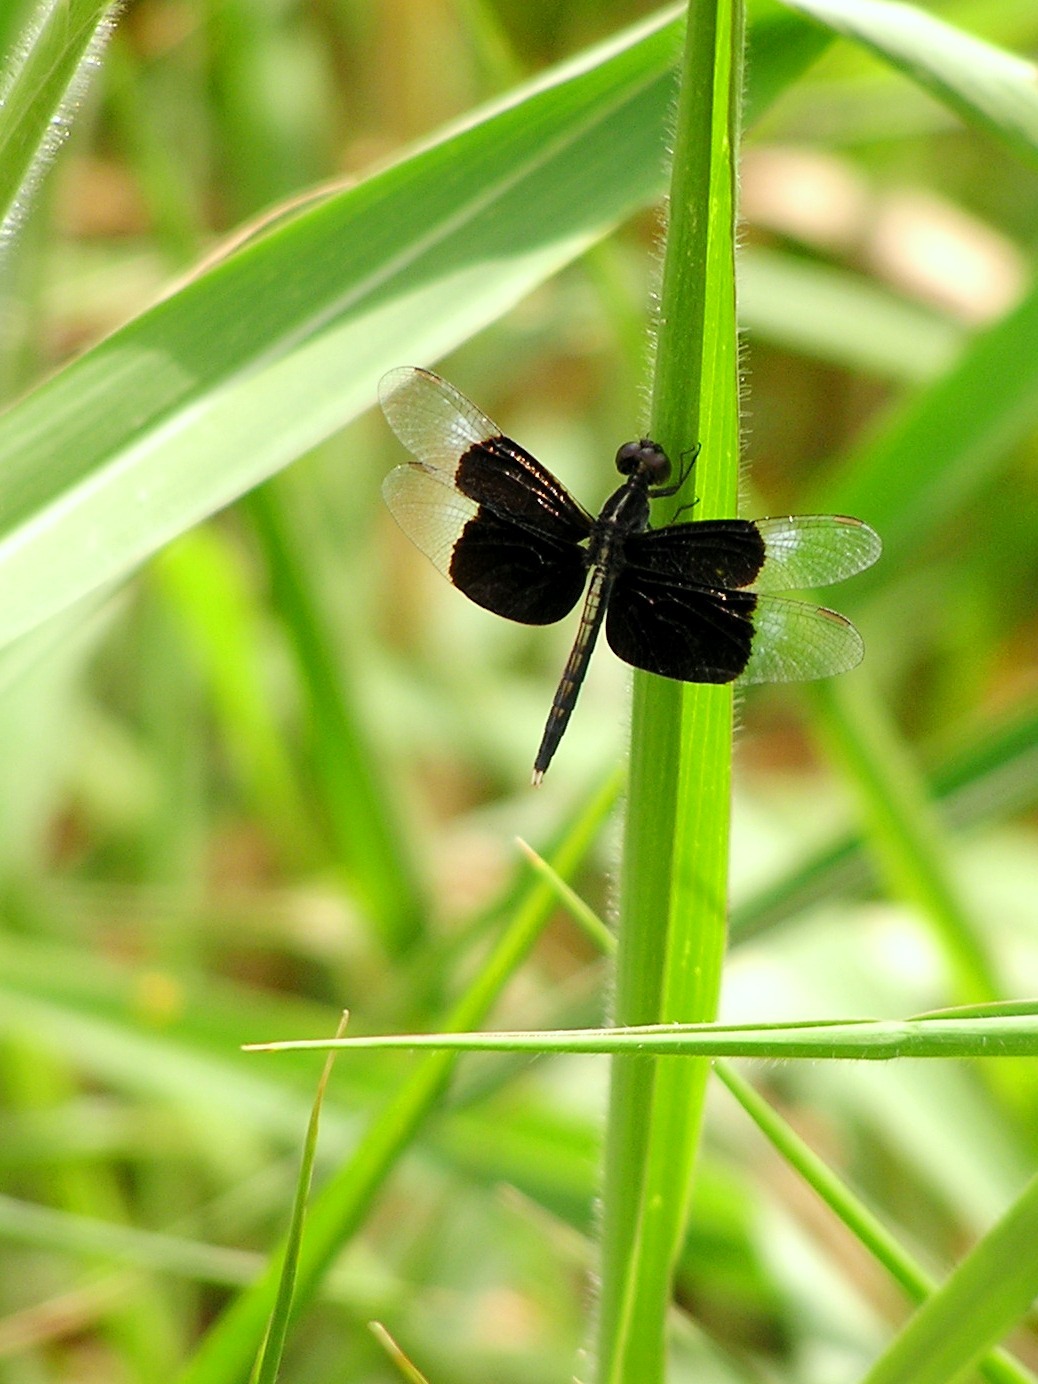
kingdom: Animalia
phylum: Arthropoda
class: Insecta
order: Odonata
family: Libellulidae
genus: Neurothemis
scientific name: Neurothemis tullia
